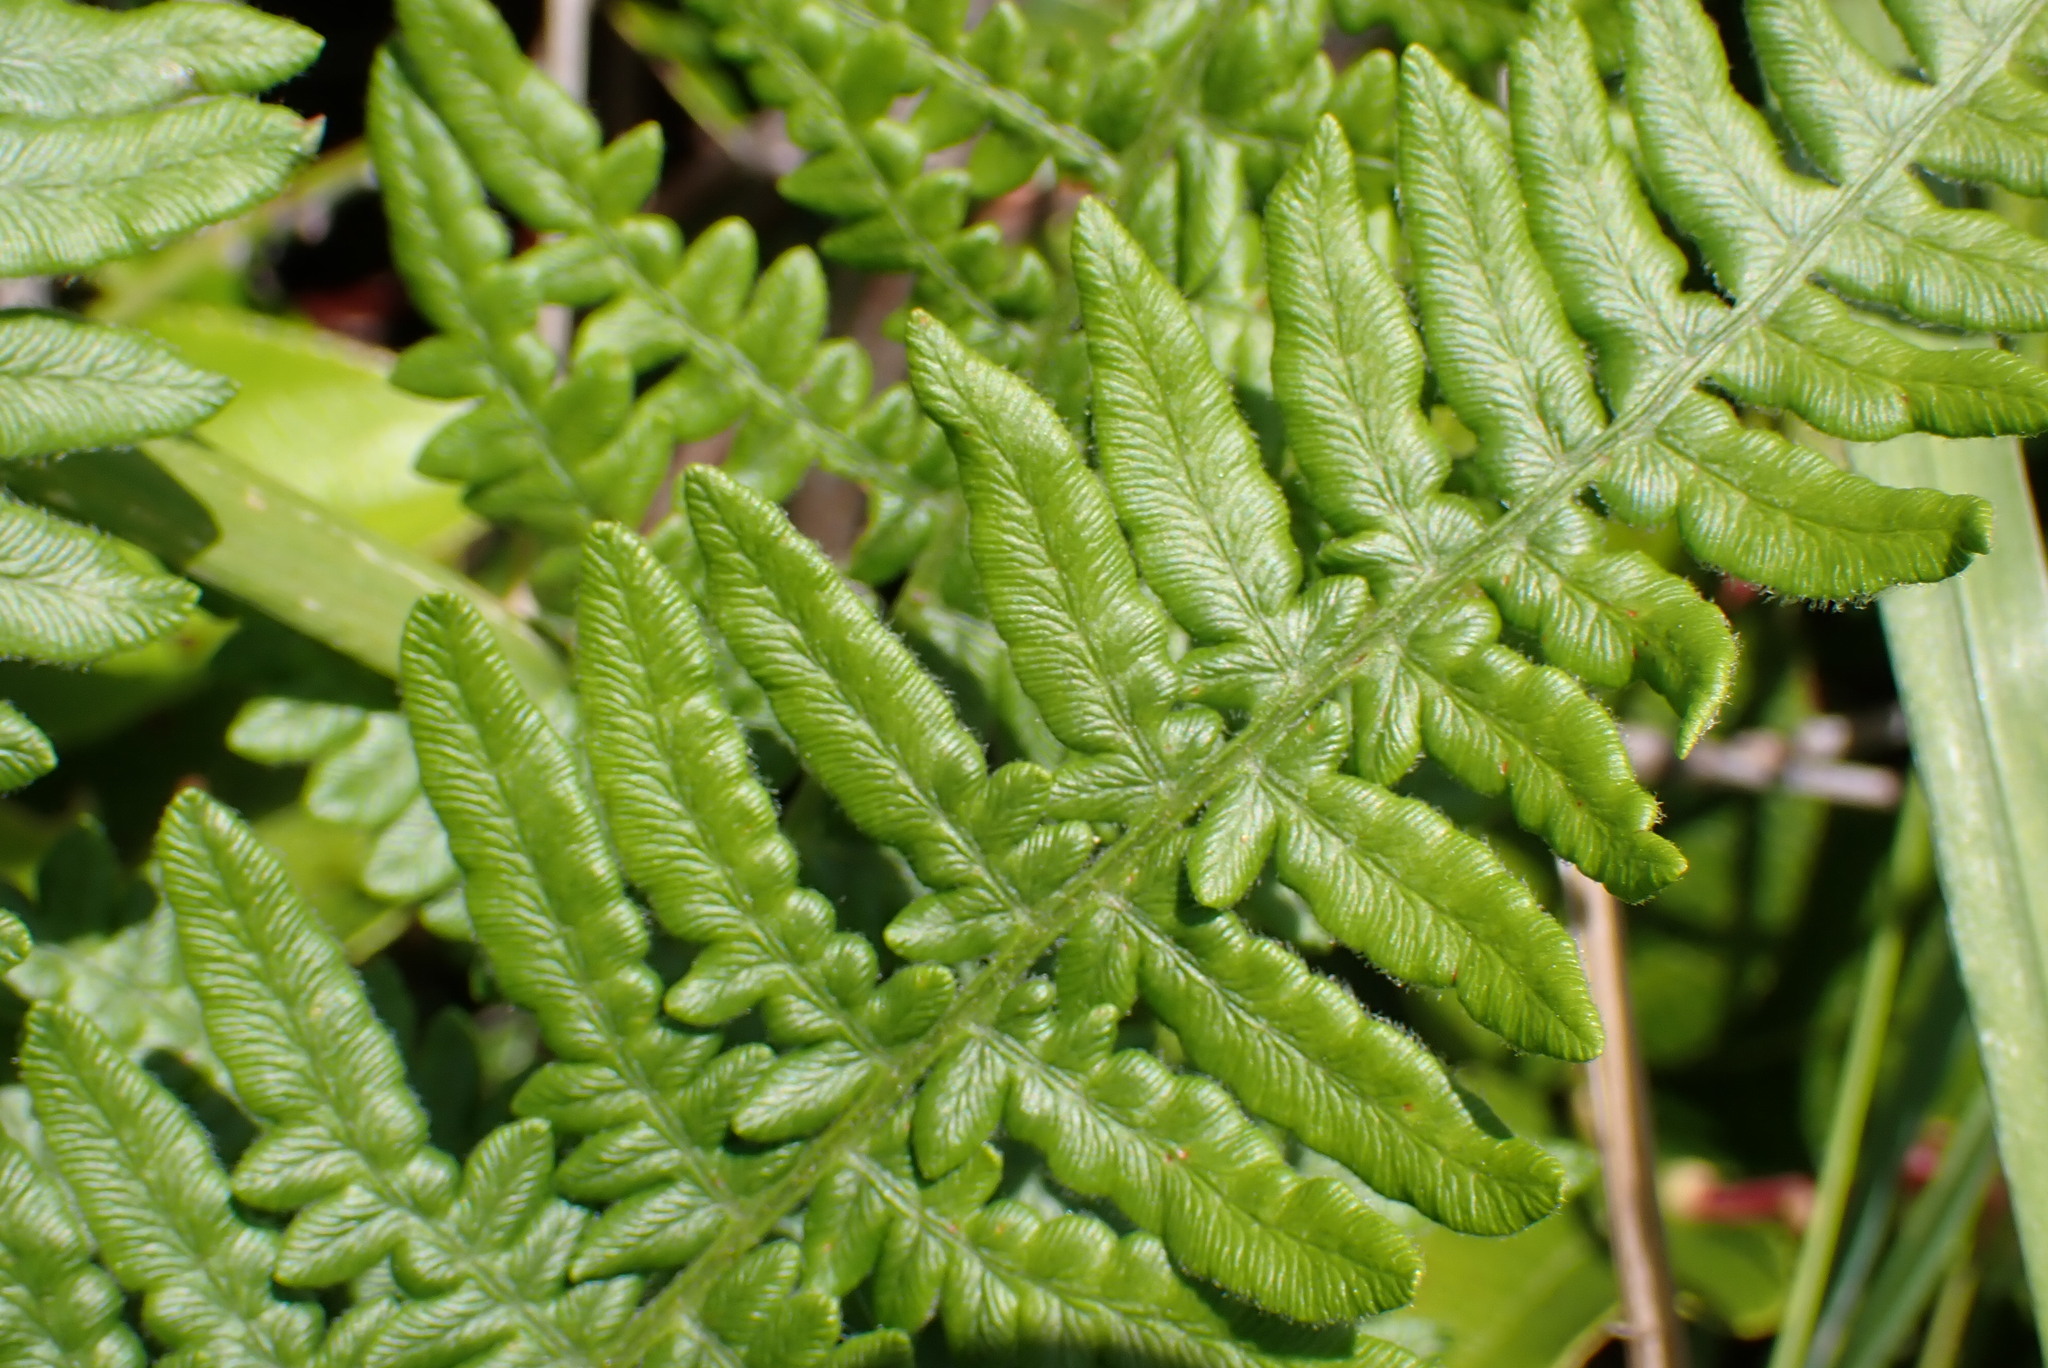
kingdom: Plantae
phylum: Tracheophyta
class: Polypodiopsida
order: Polypodiales
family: Dennstaedtiaceae
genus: Pteridium
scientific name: Pteridium aquilinum
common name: Bracken
